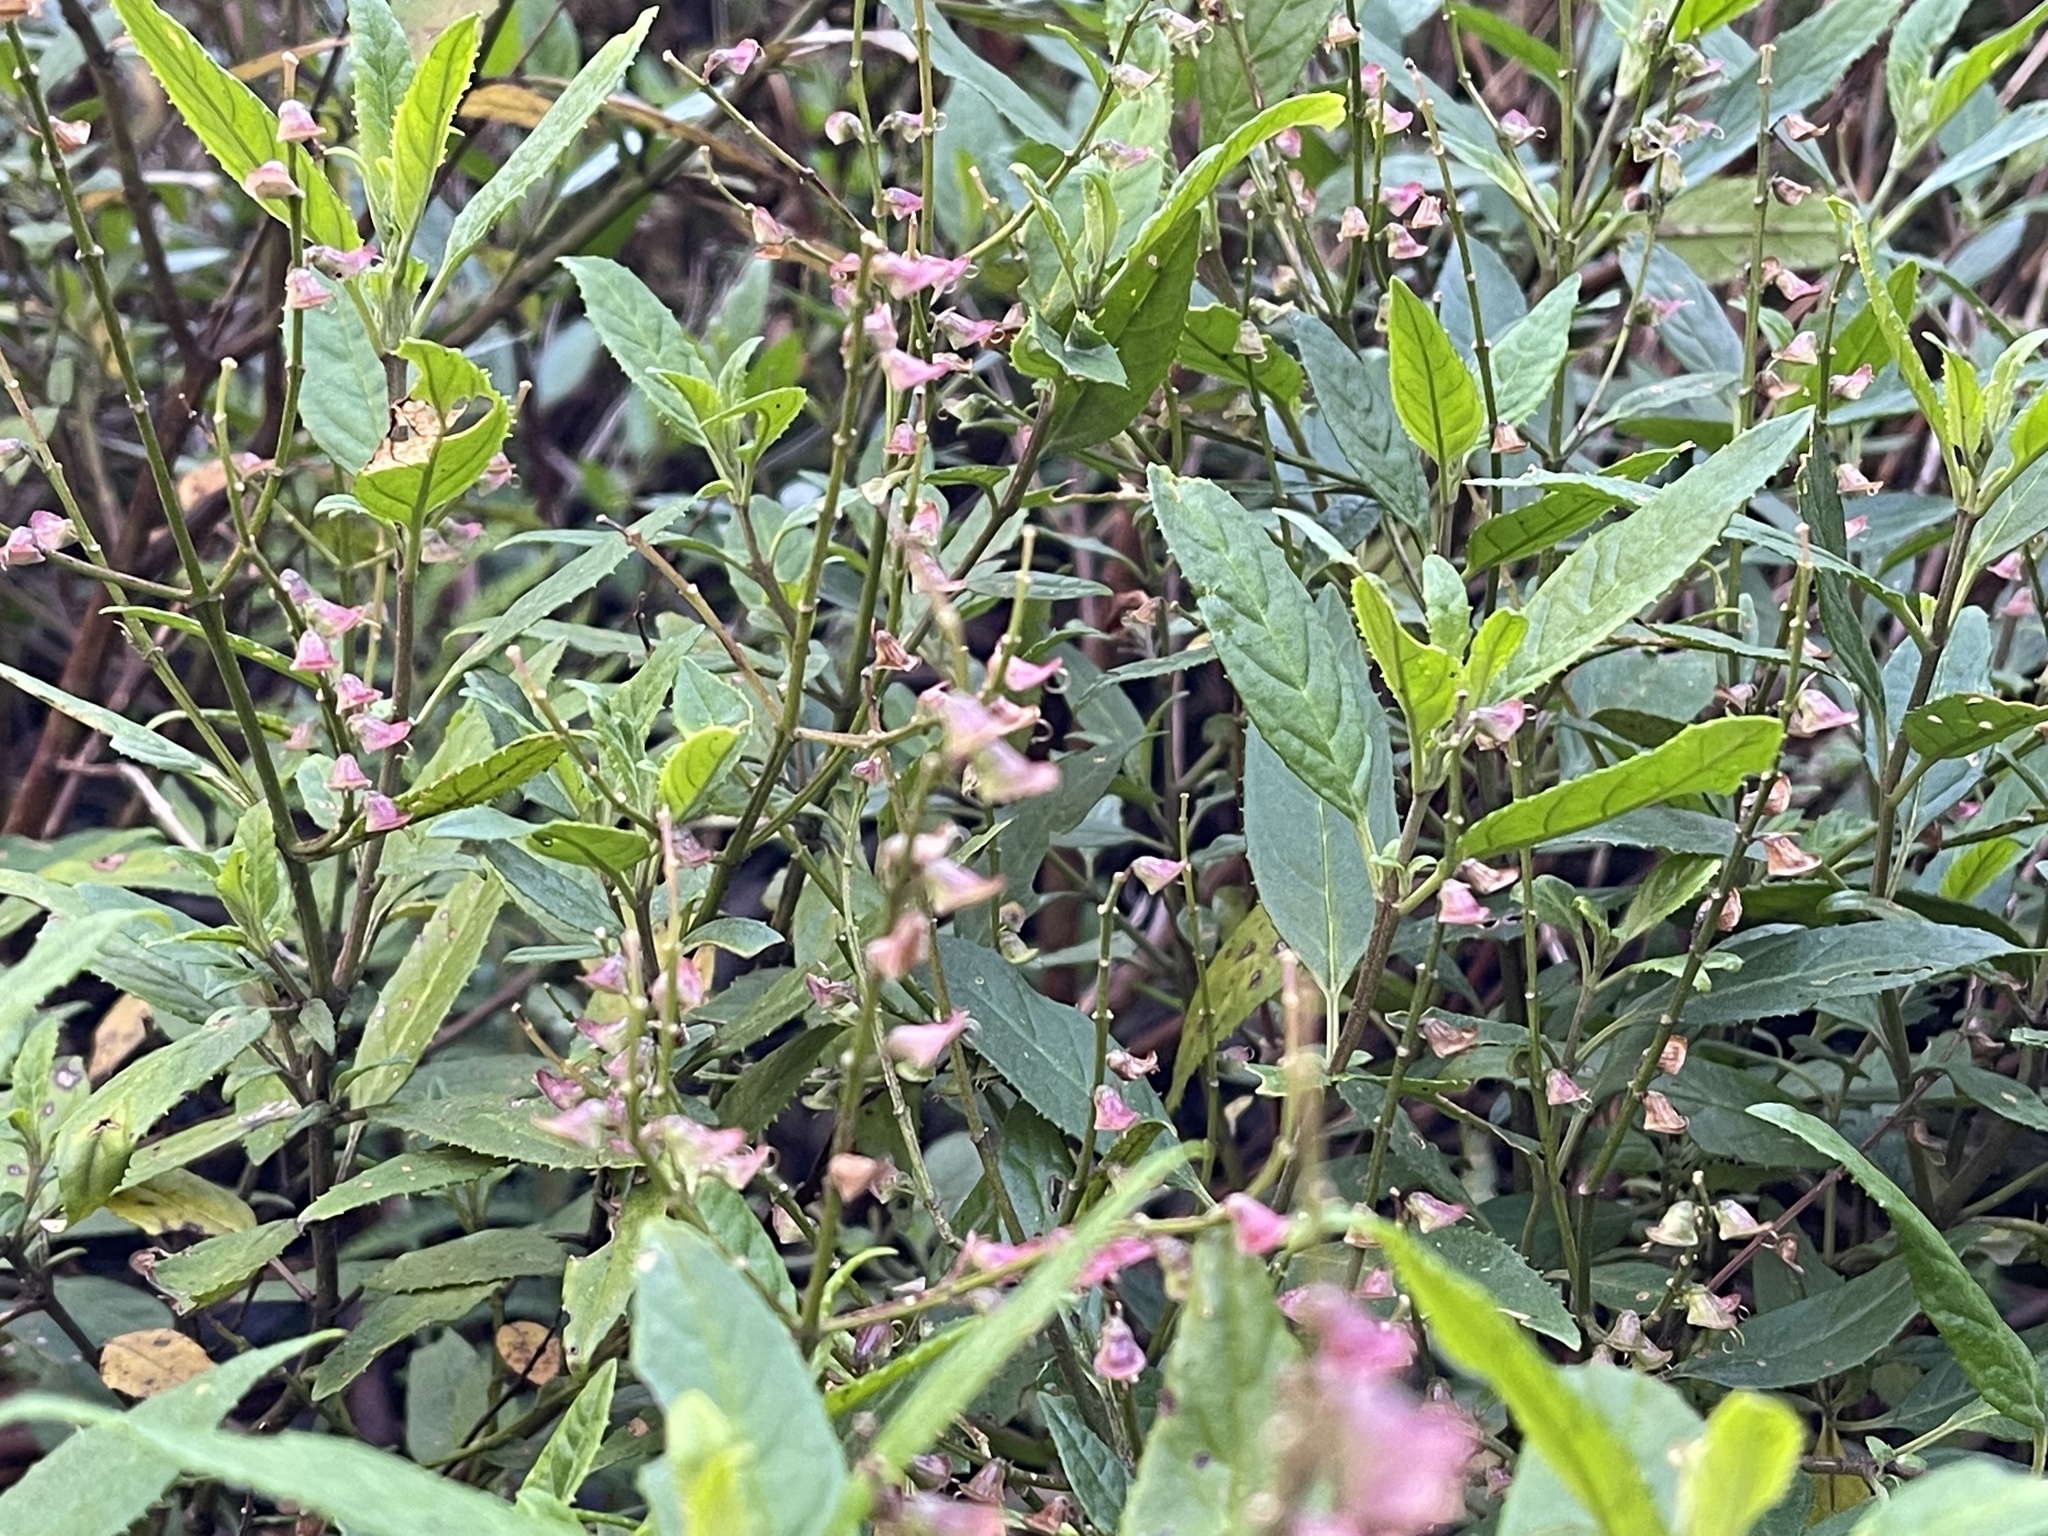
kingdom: Plantae
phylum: Tracheophyta
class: Magnoliopsida
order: Lamiales
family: Lamiaceae
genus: Prostanthera
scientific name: Prostanthera lasianthos
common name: Mountain-lilac
